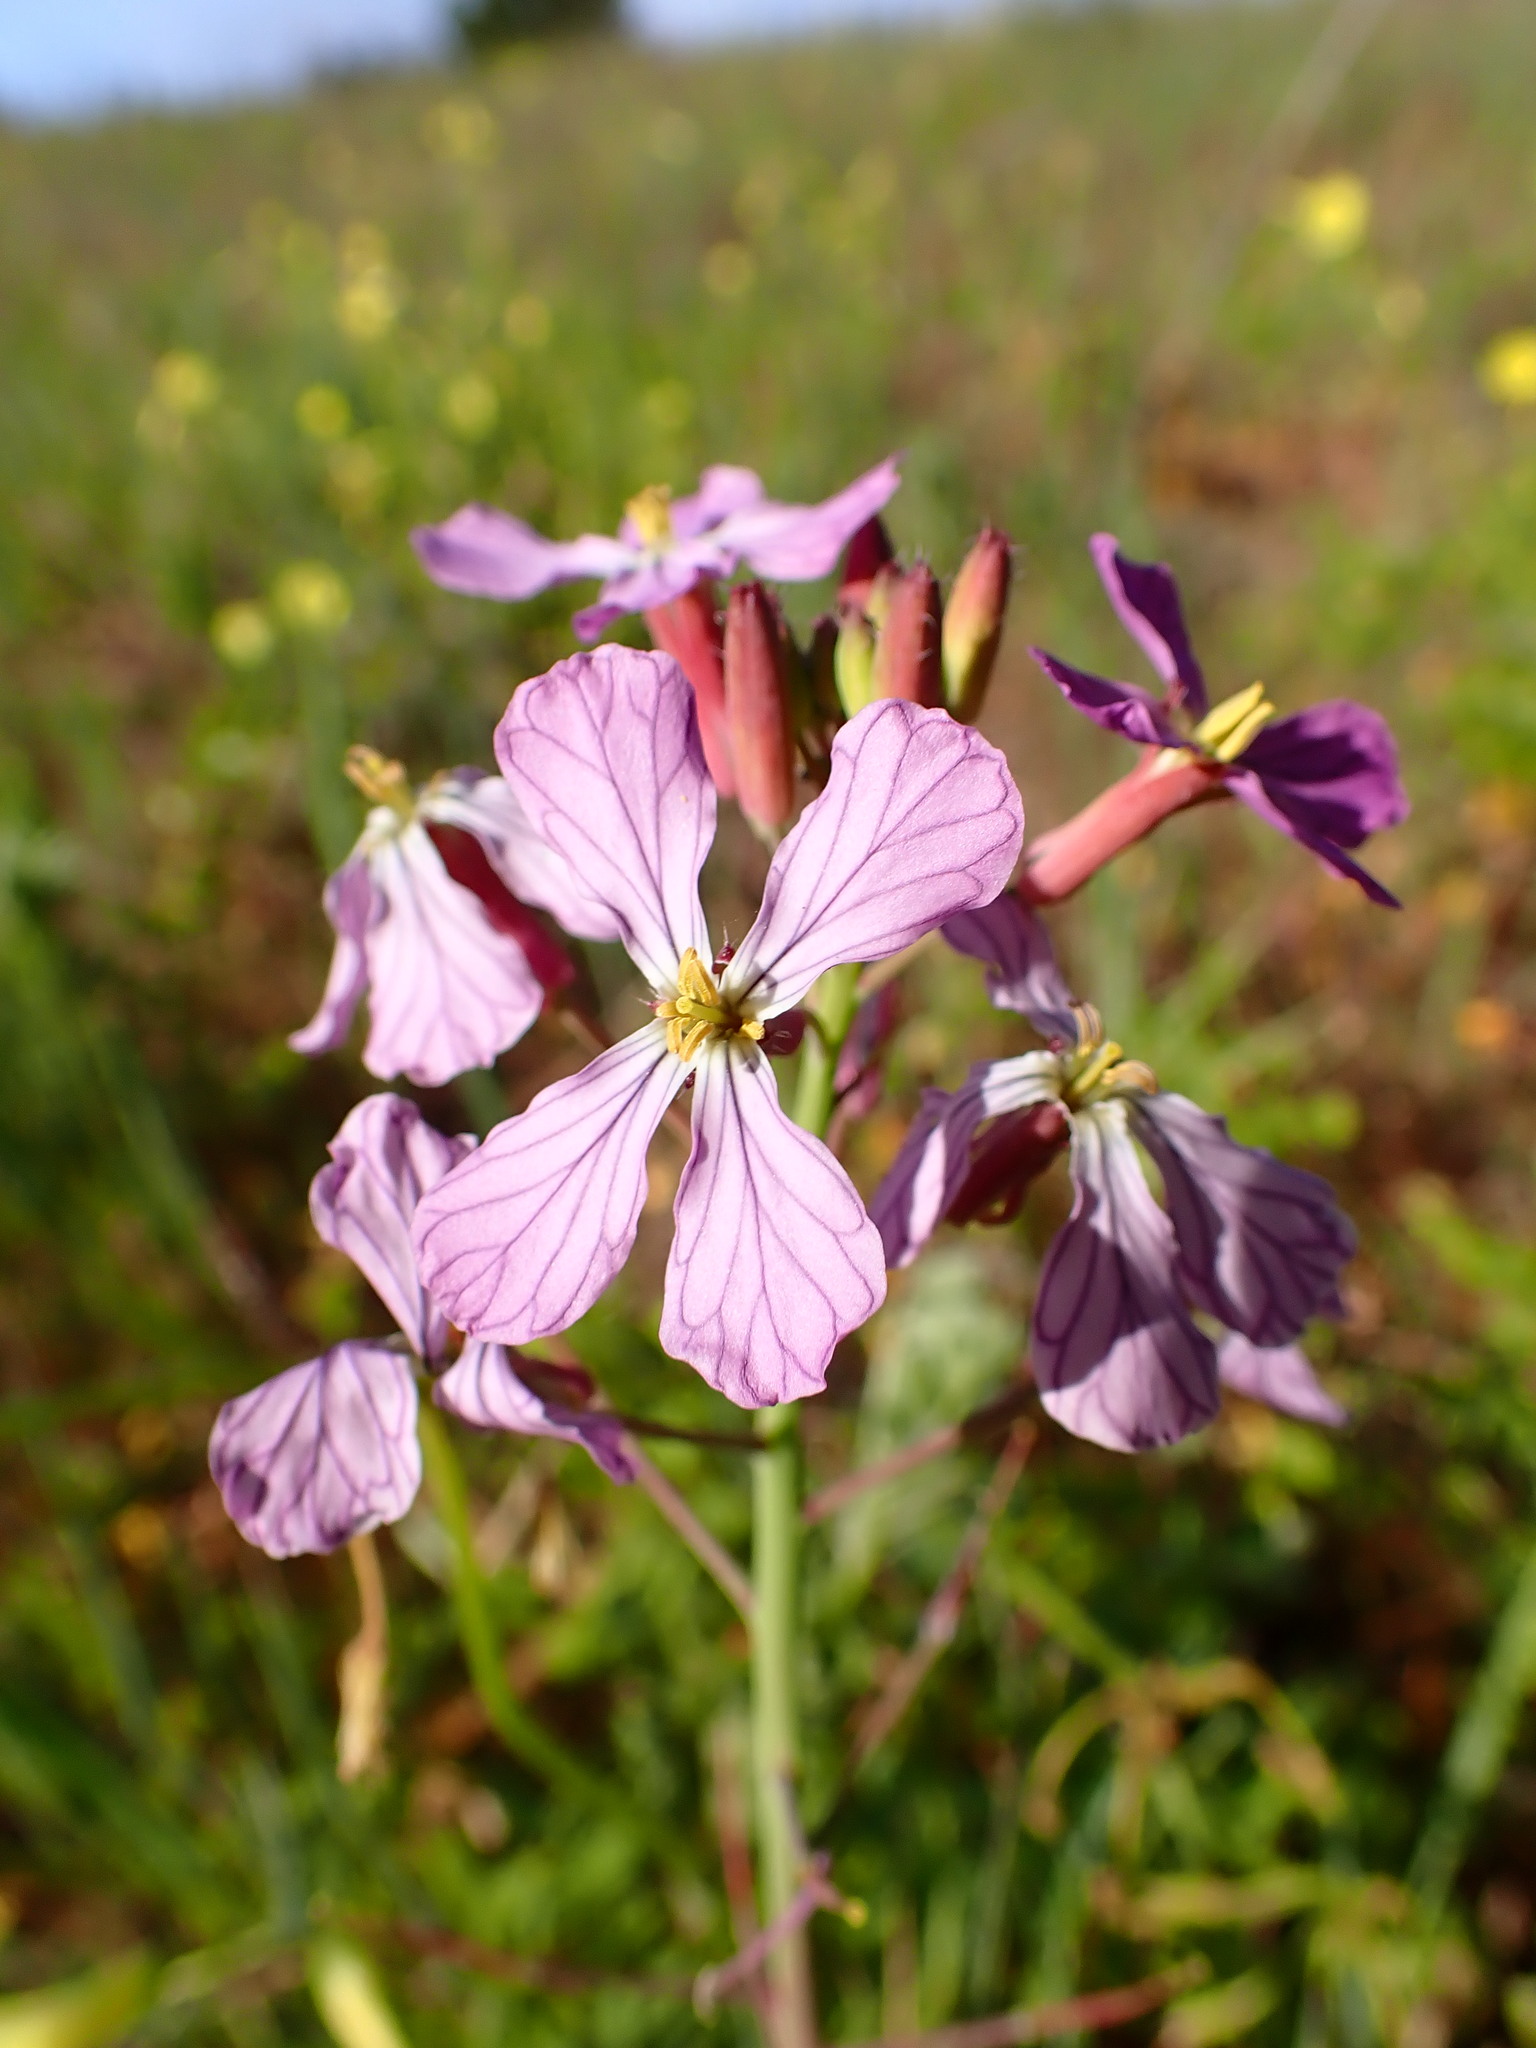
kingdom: Plantae
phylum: Tracheophyta
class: Magnoliopsida
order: Brassicales
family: Brassicaceae
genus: Raphanus
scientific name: Raphanus sativus
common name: Cultivated radish
